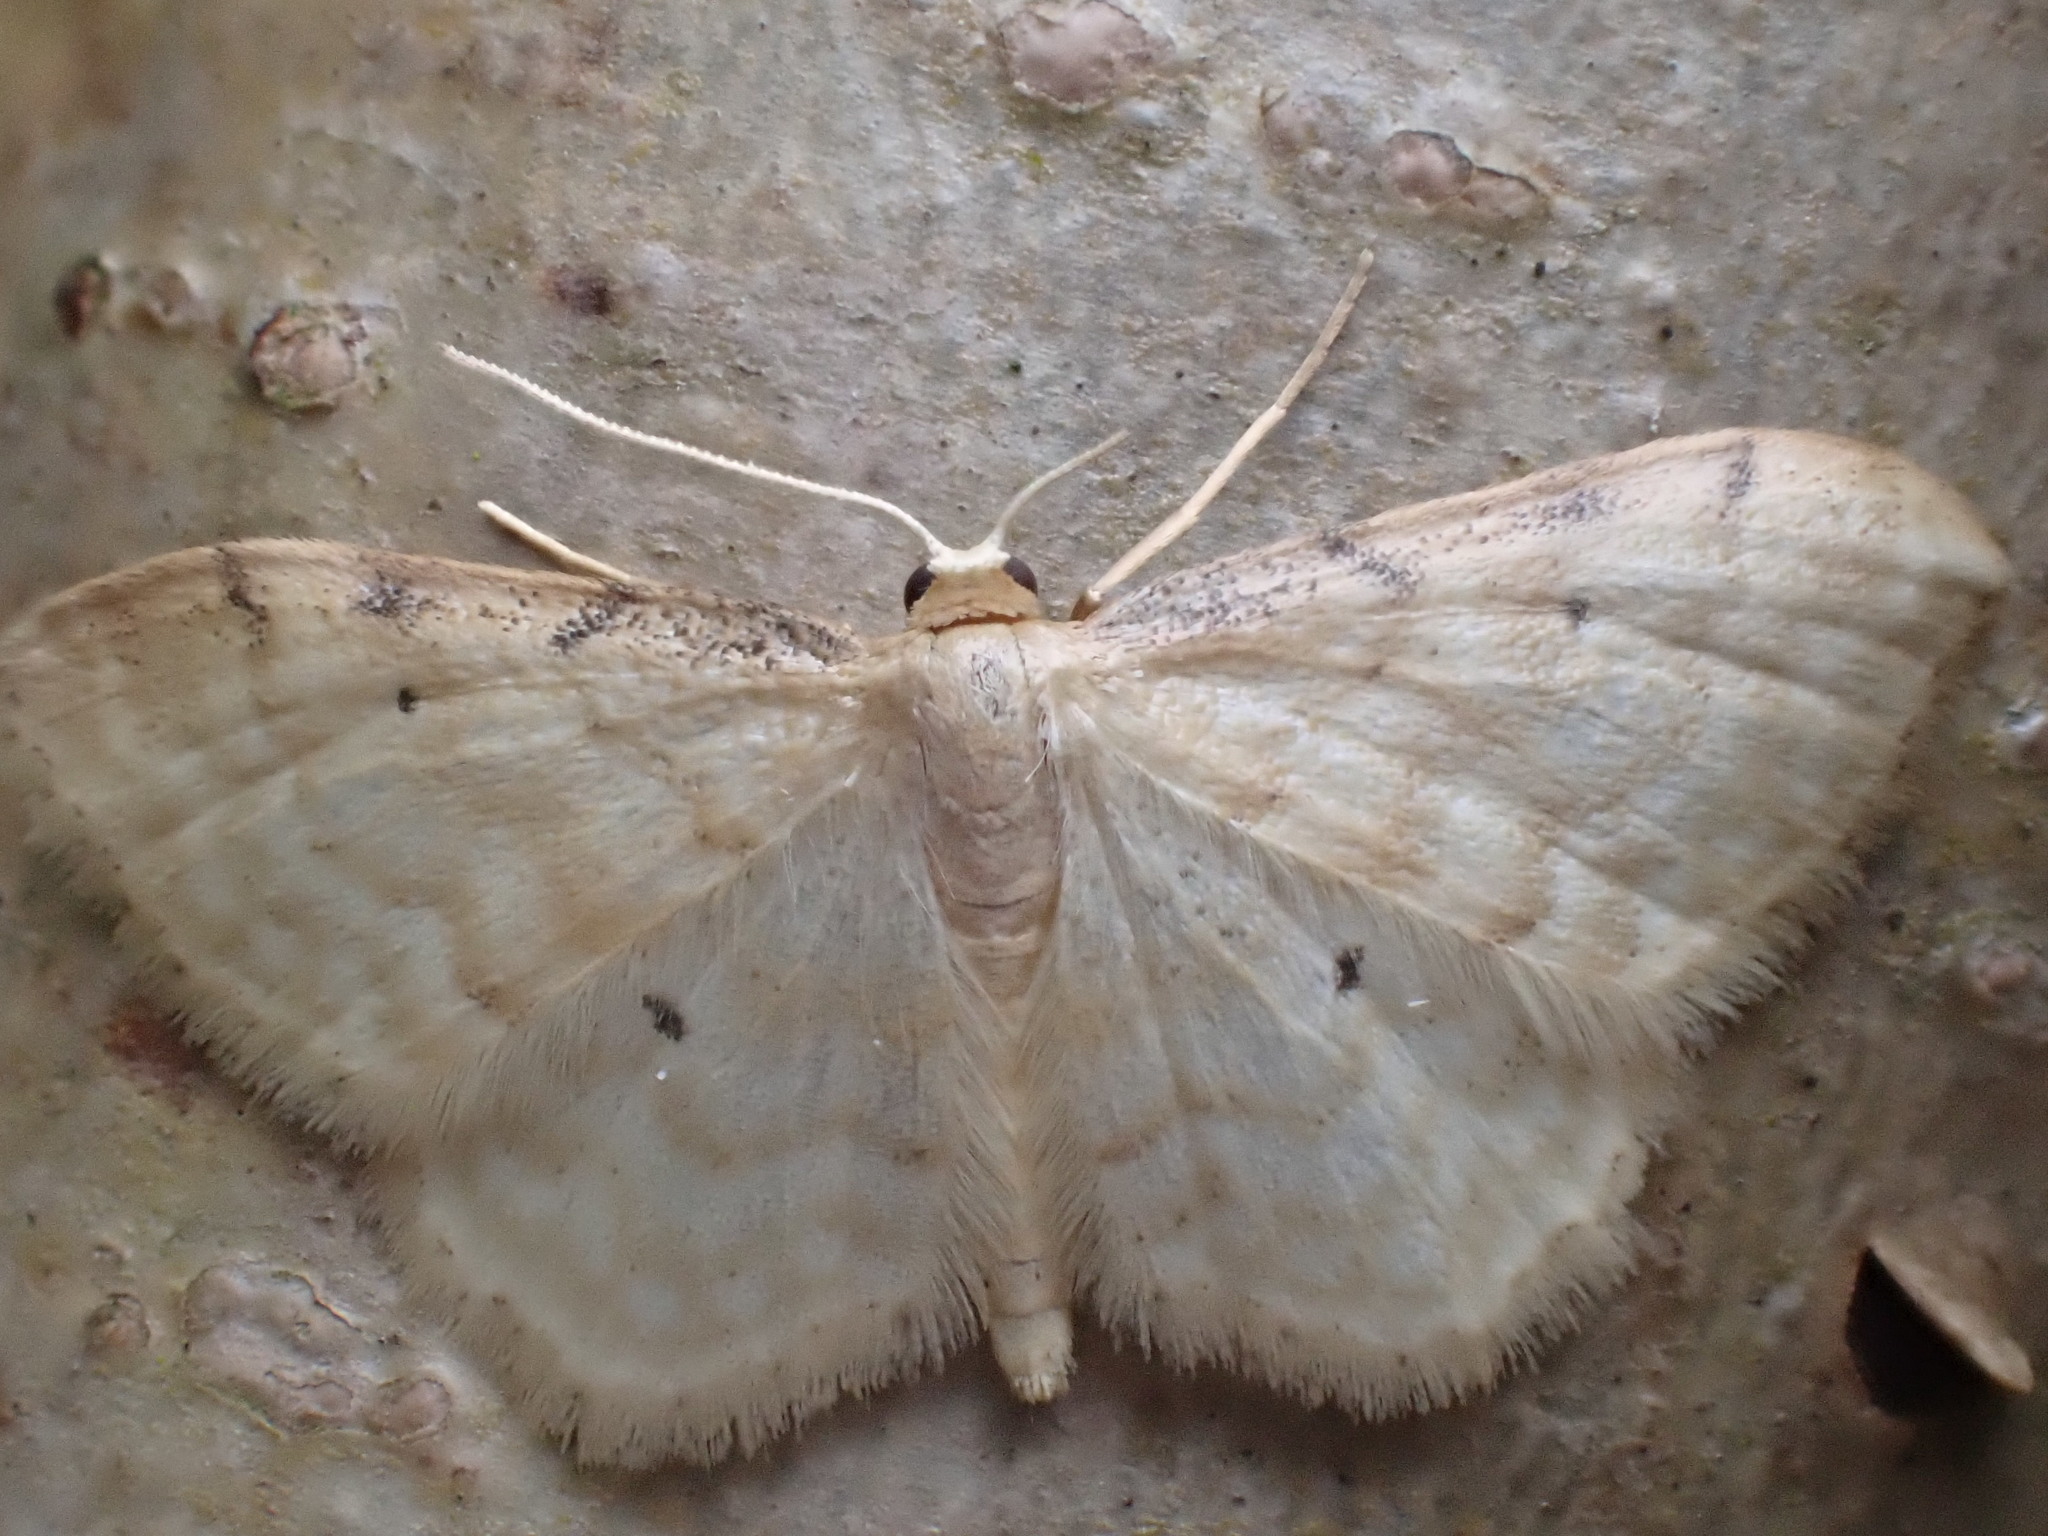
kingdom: Animalia
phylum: Arthropoda
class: Insecta
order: Lepidoptera
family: Geometridae
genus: Idaea
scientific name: Idaea fuscovenosa
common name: Dwarf cream wave
